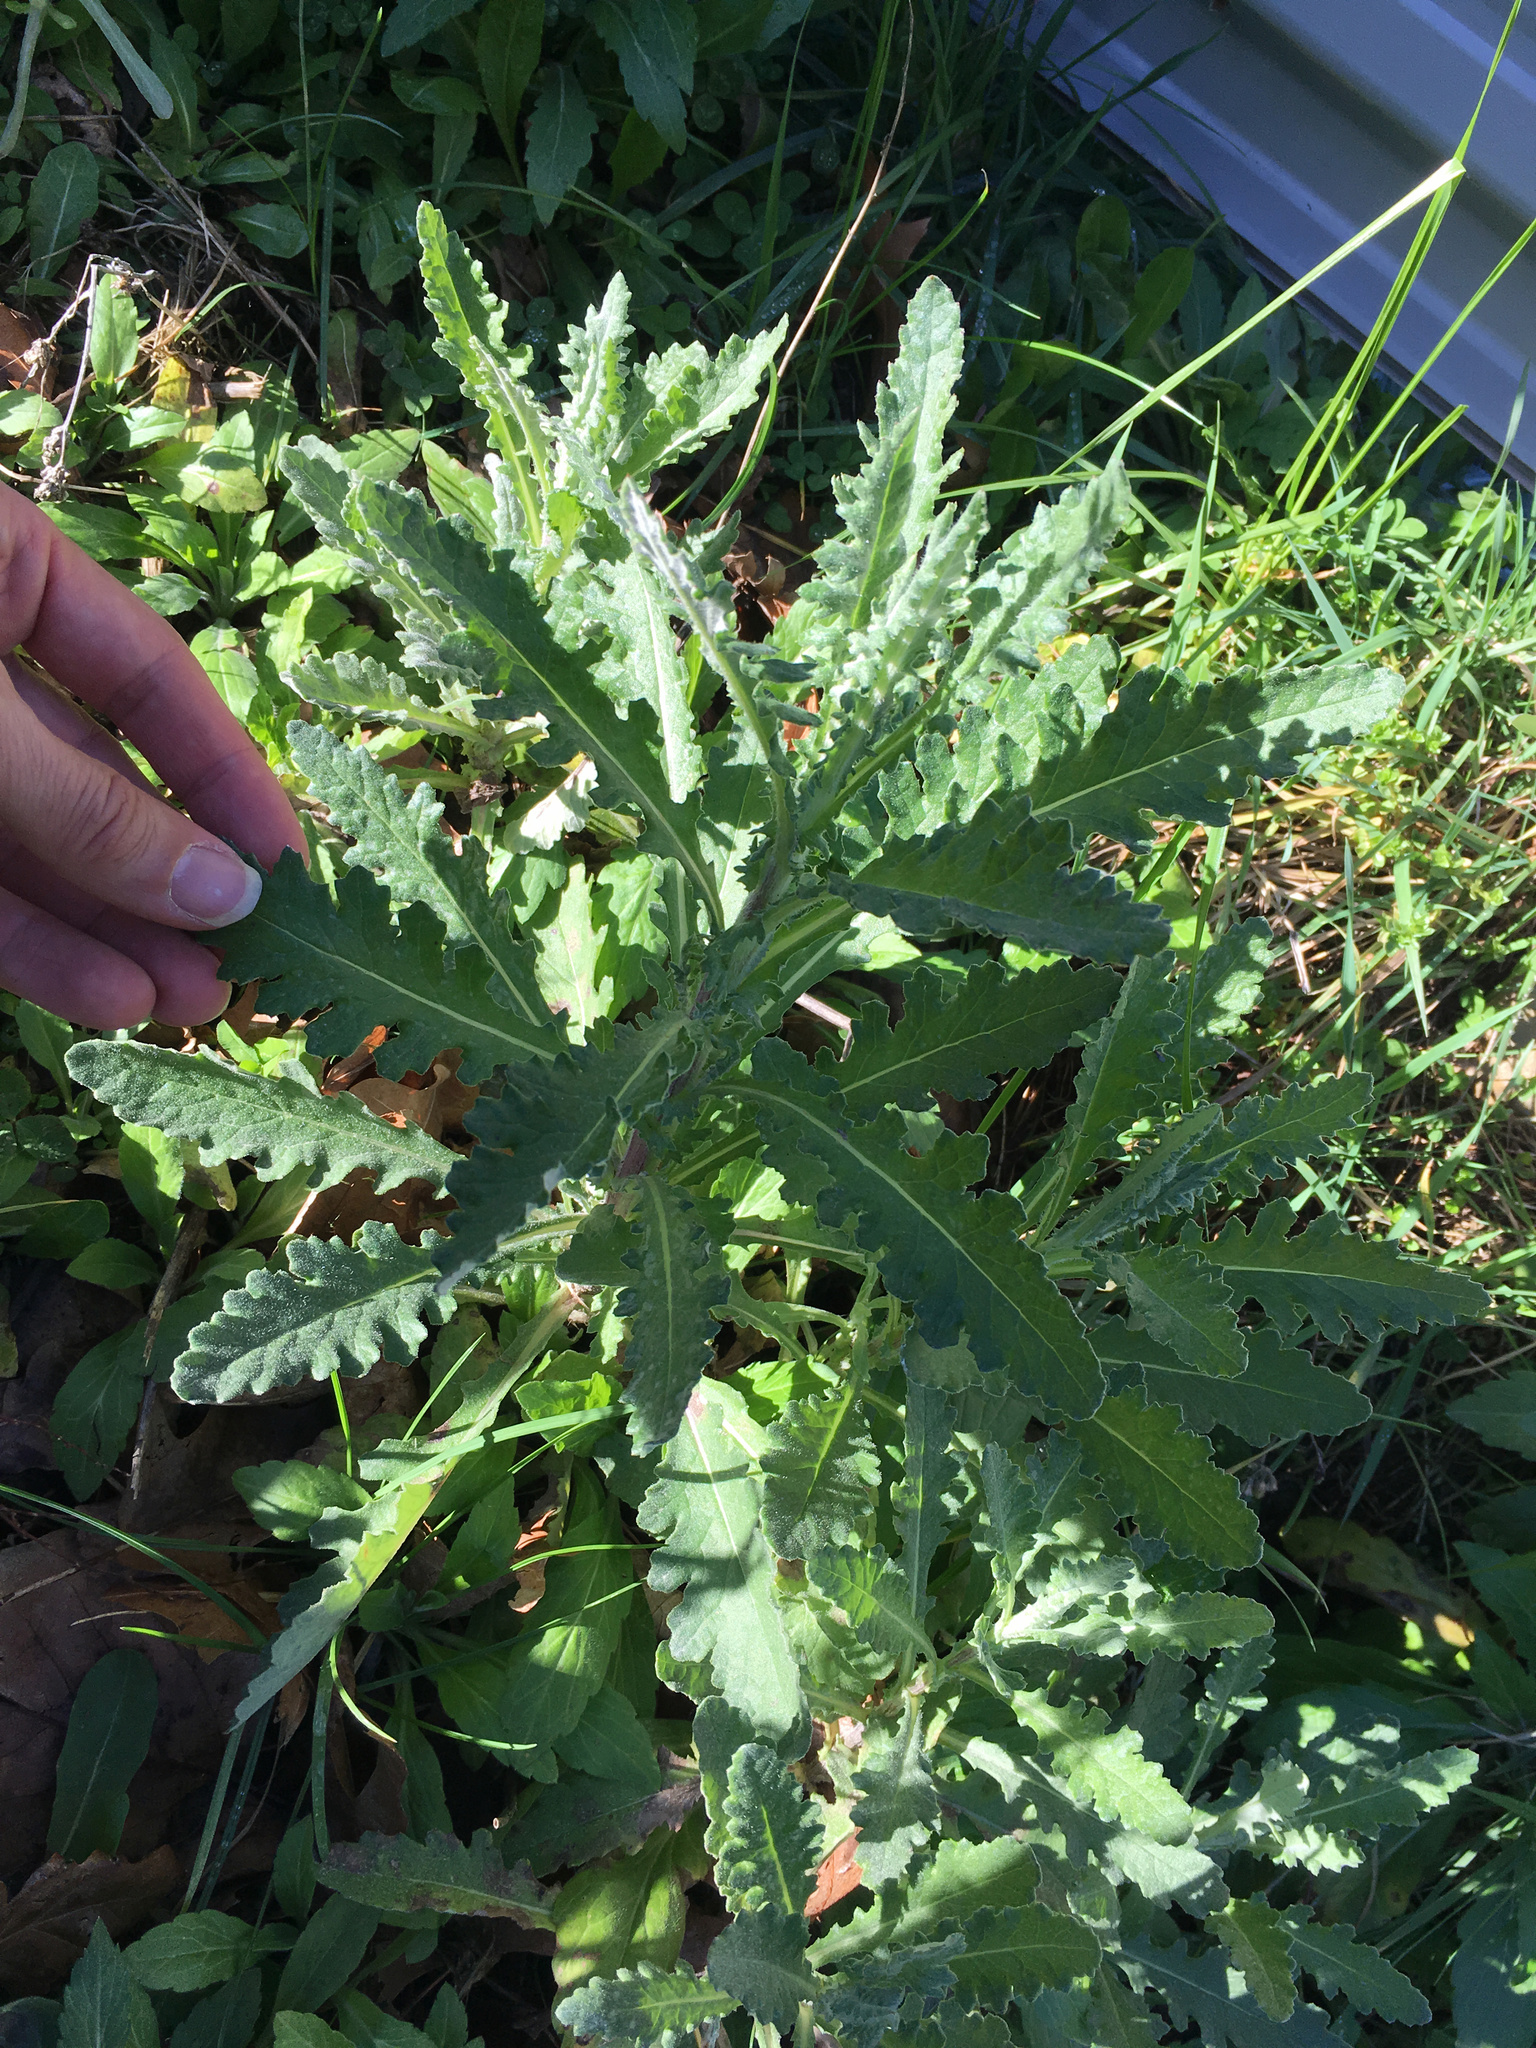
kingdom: Plantae
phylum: Tracheophyta
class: Magnoliopsida
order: Asterales
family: Asteraceae
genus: Senecio
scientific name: Senecio glomeratus
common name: Cutleaf burnweed
